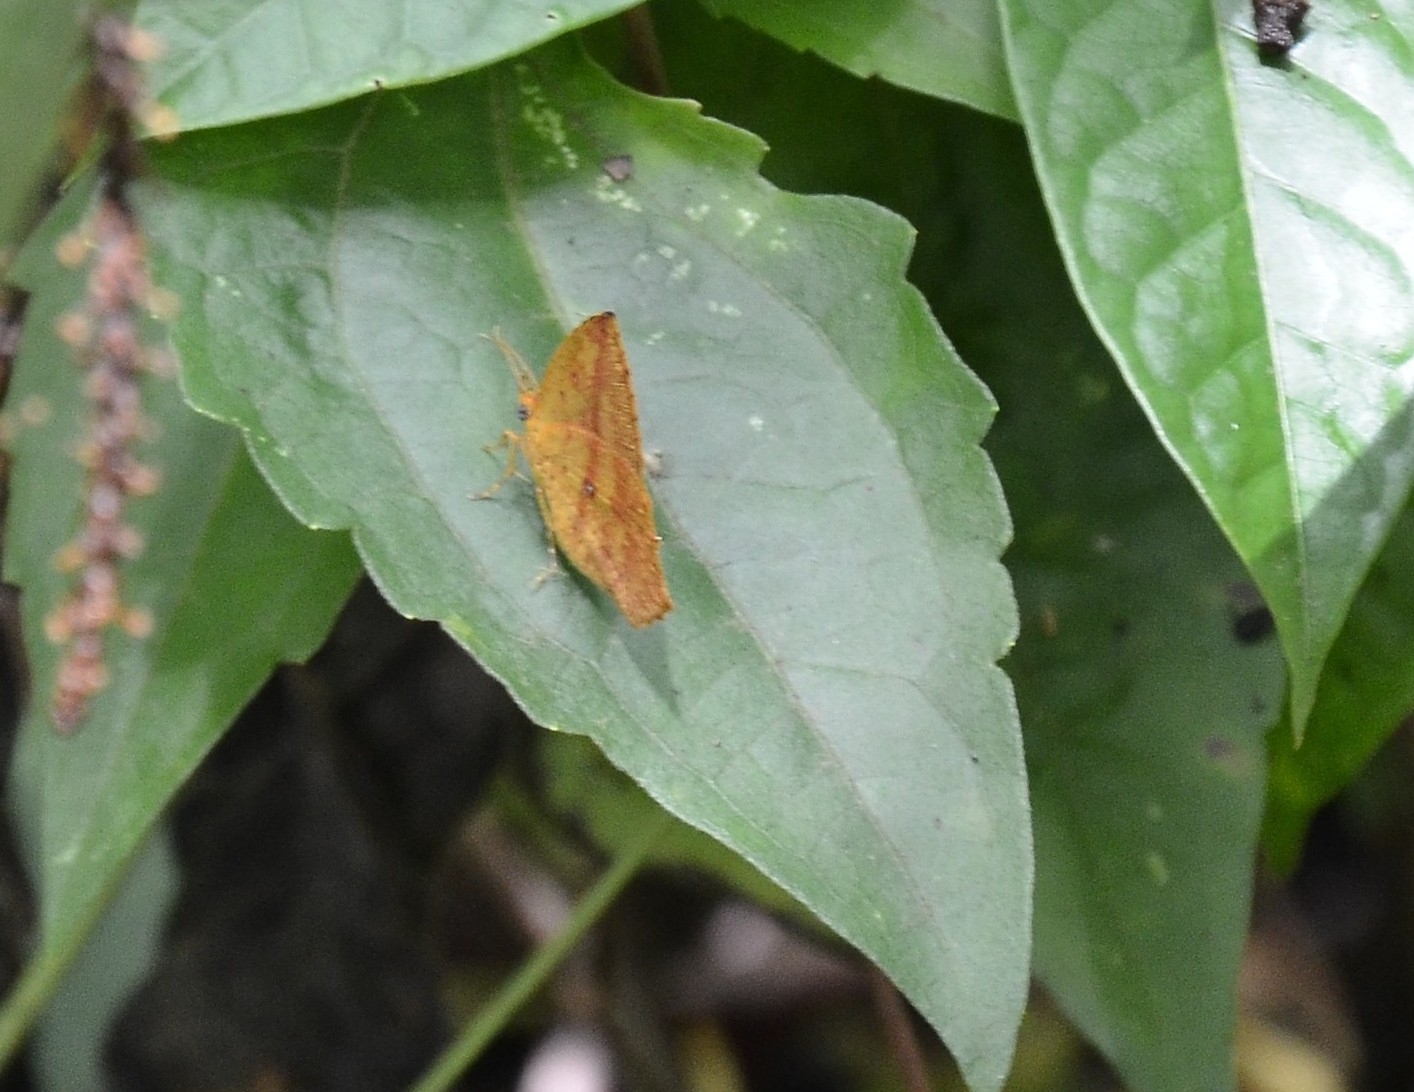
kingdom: Animalia
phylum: Arthropoda
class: Insecta
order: Lepidoptera
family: Callidulidae
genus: Tetragonus
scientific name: Tetragonus catamitus
